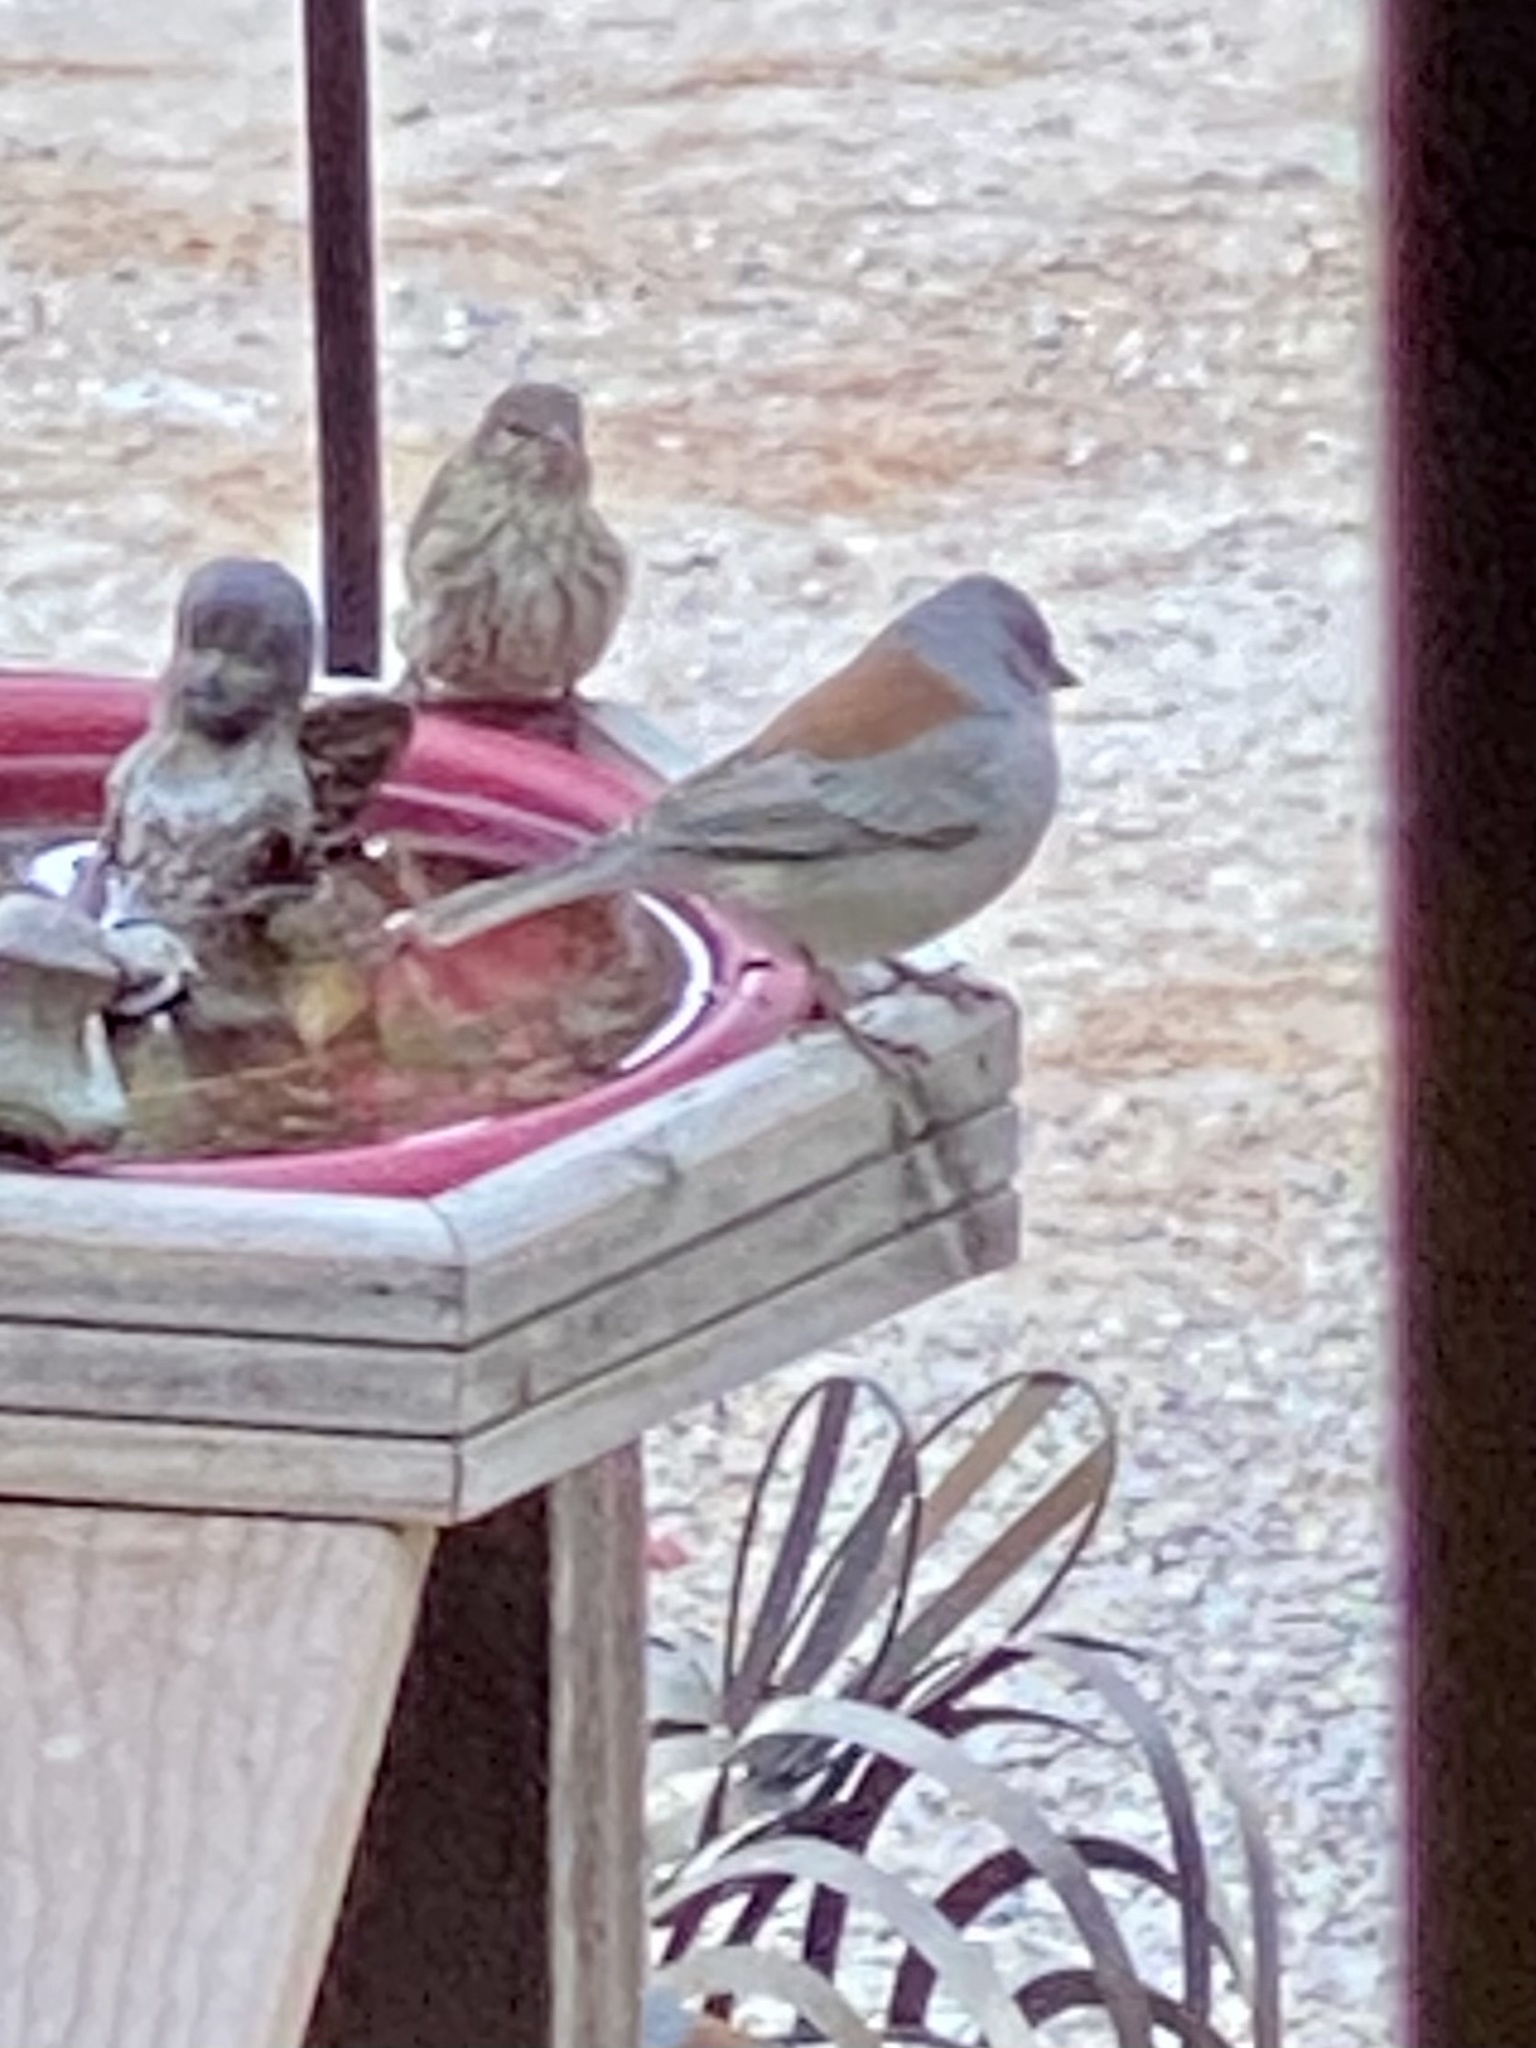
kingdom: Animalia
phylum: Chordata
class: Aves
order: Passeriformes
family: Passerellidae
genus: Junco
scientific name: Junco hyemalis
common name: Dark-eyed junco
